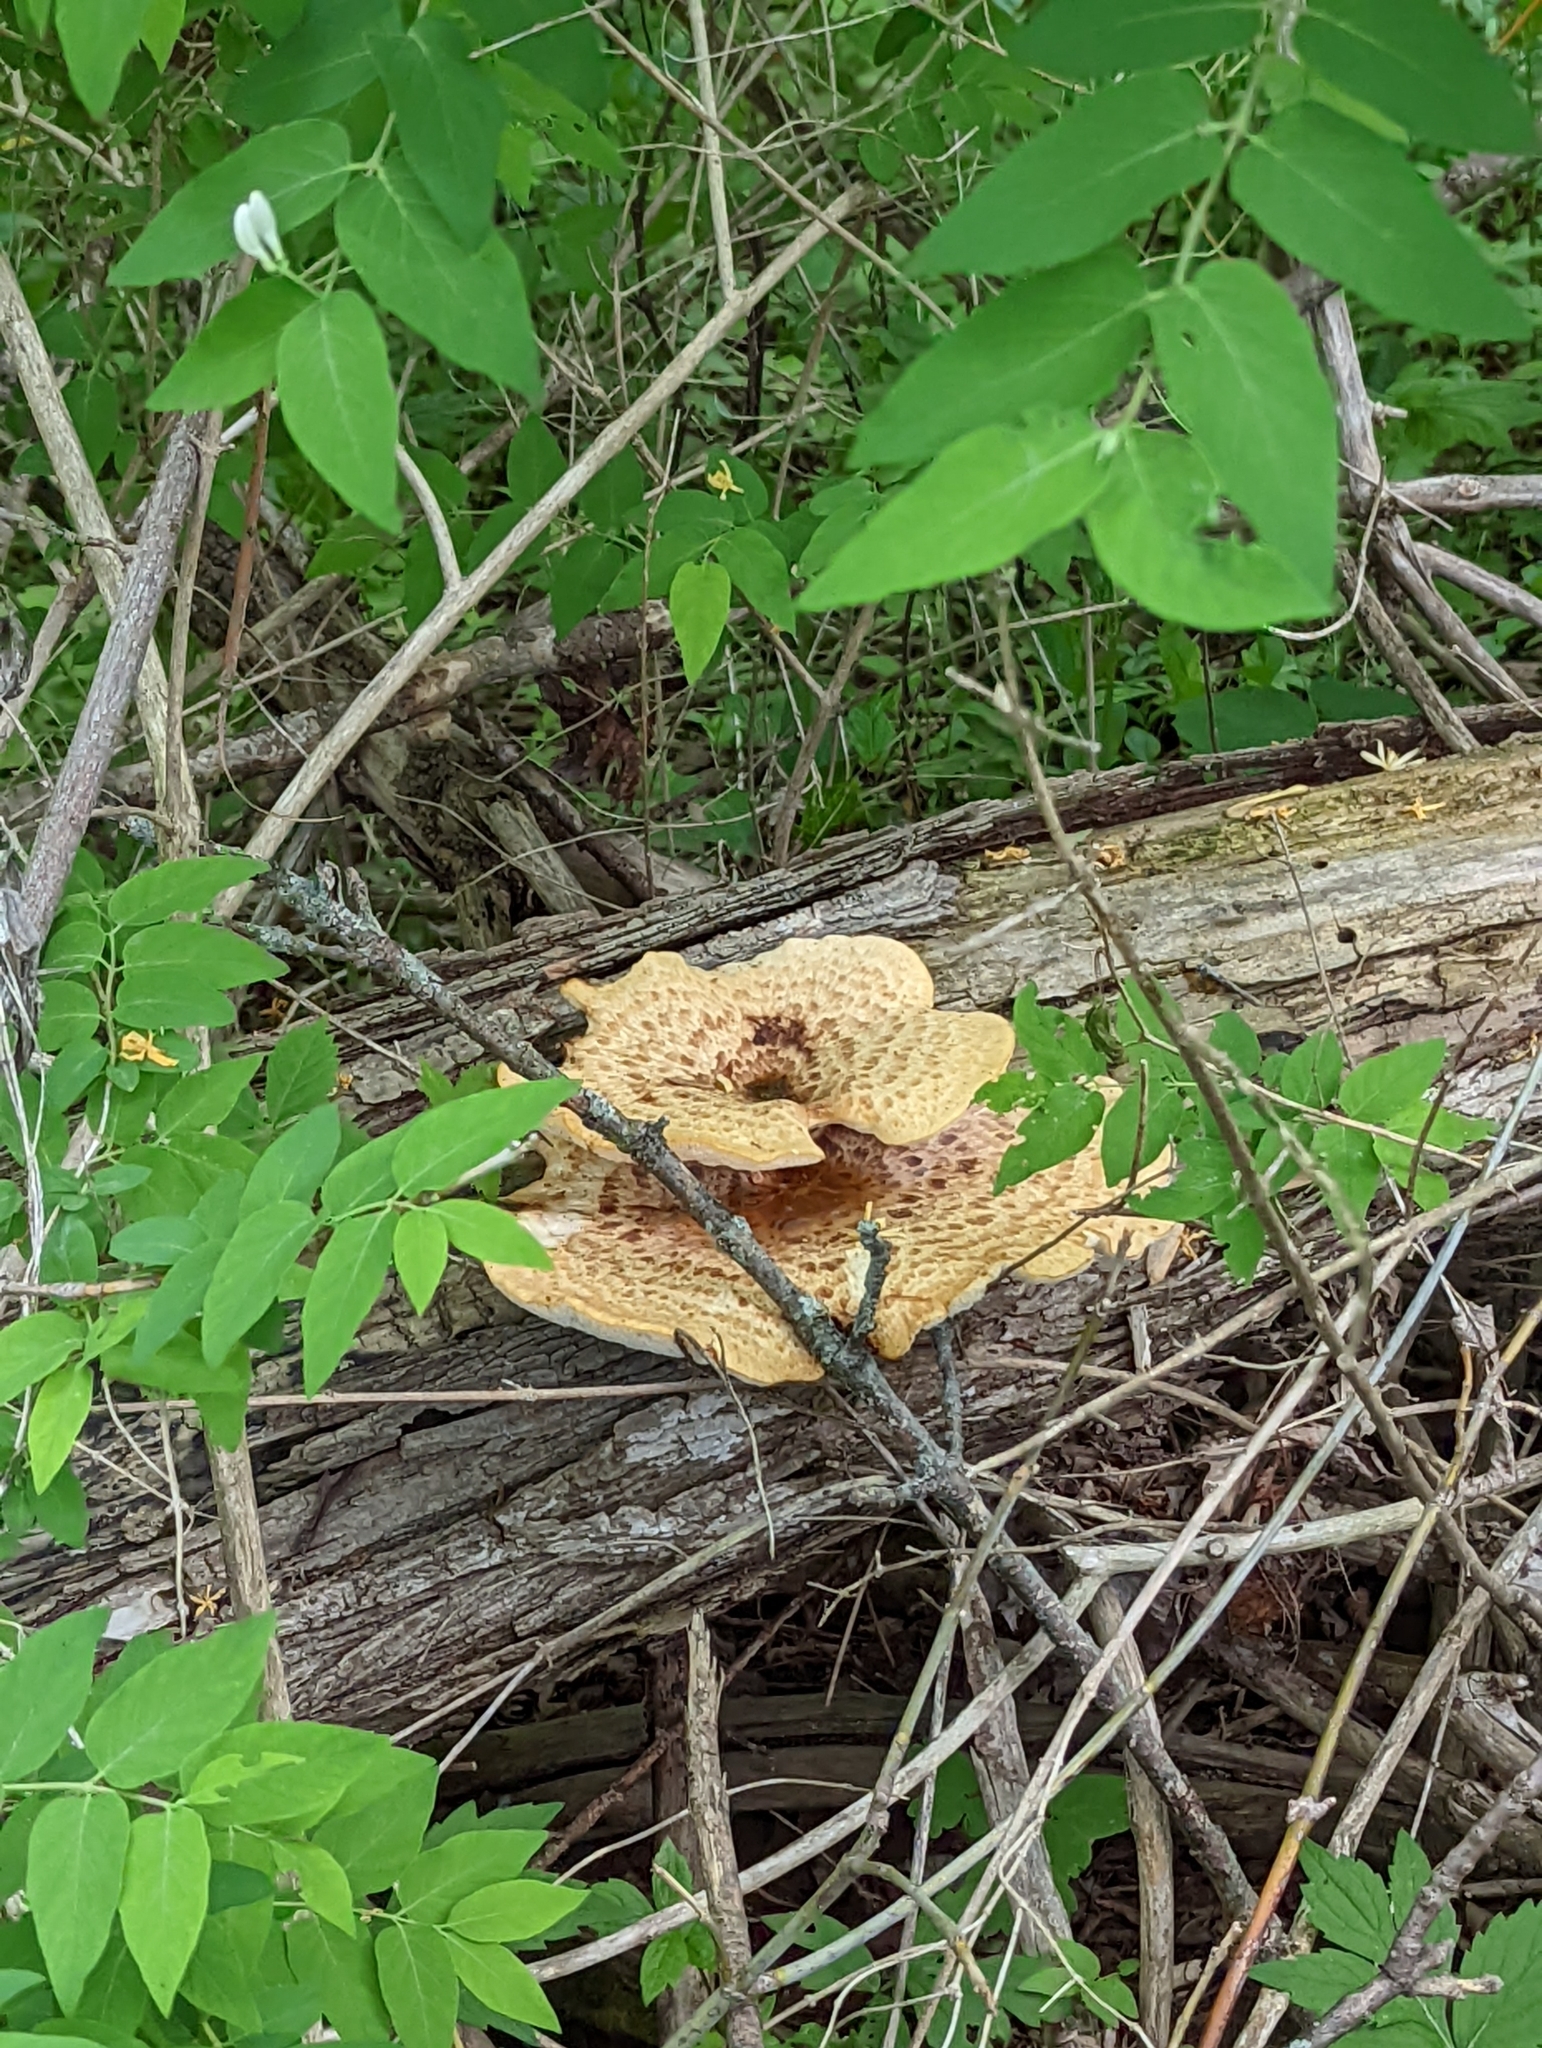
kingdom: Fungi
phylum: Basidiomycota
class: Agaricomycetes
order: Polyporales
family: Polyporaceae
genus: Cerioporus
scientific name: Cerioporus squamosus
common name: Dryad's saddle
